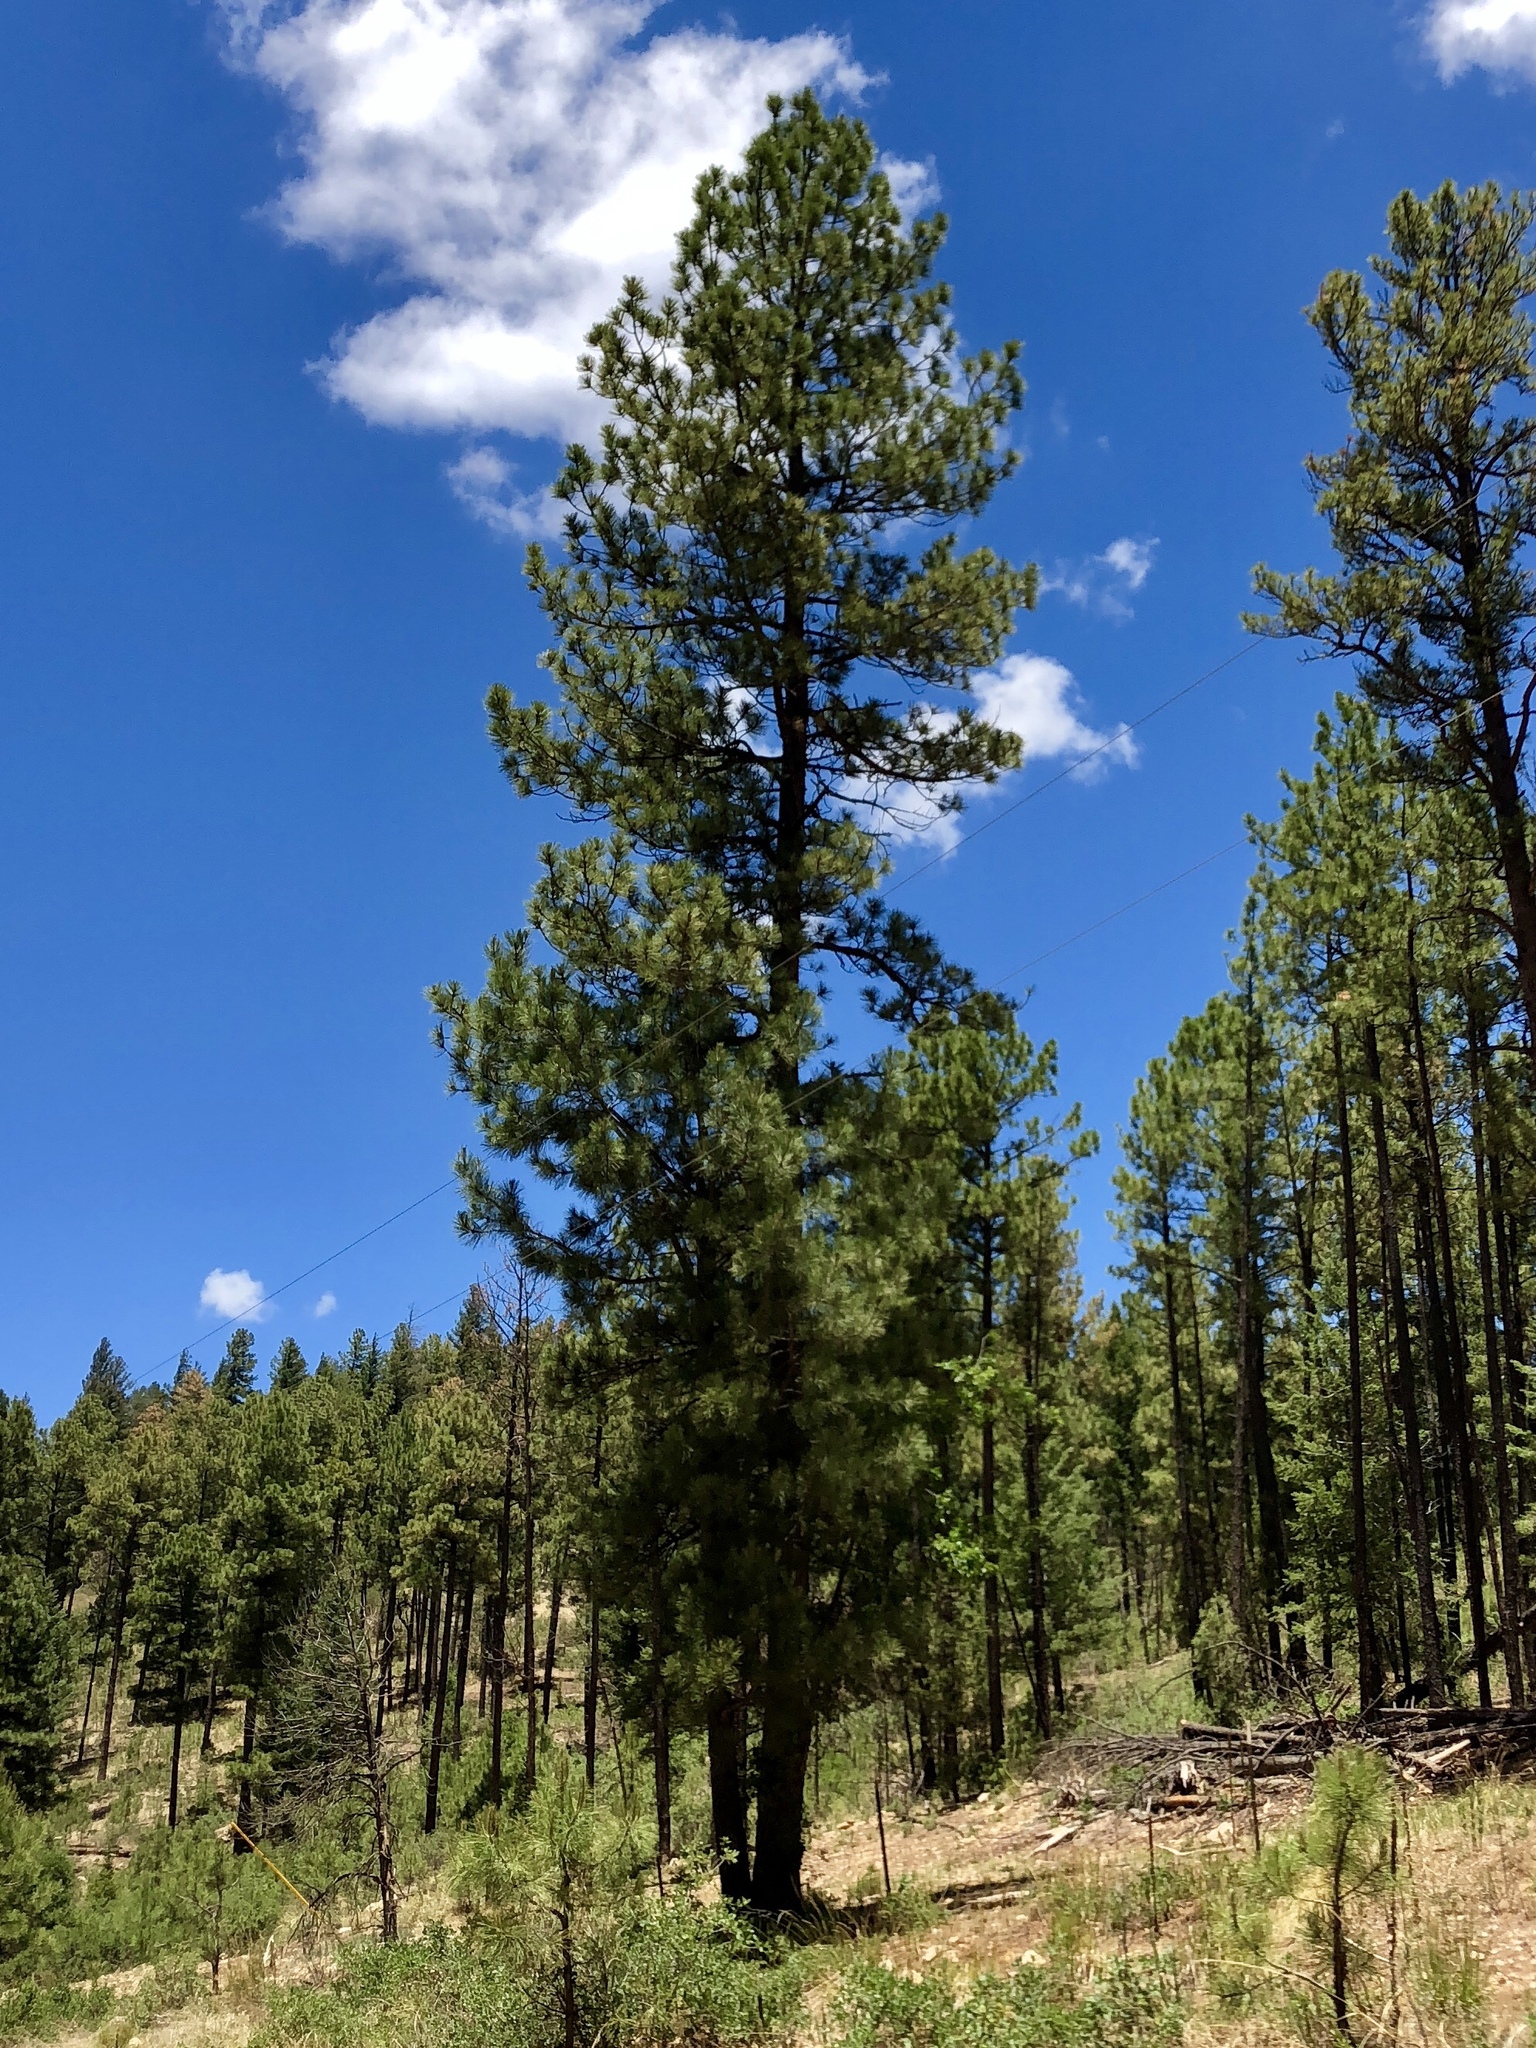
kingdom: Plantae
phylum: Tracheophyta
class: Pinopsida
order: Pinales
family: Pinaceae
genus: Pinus
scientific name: Pinus ponderosa
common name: Western yellow-pine
